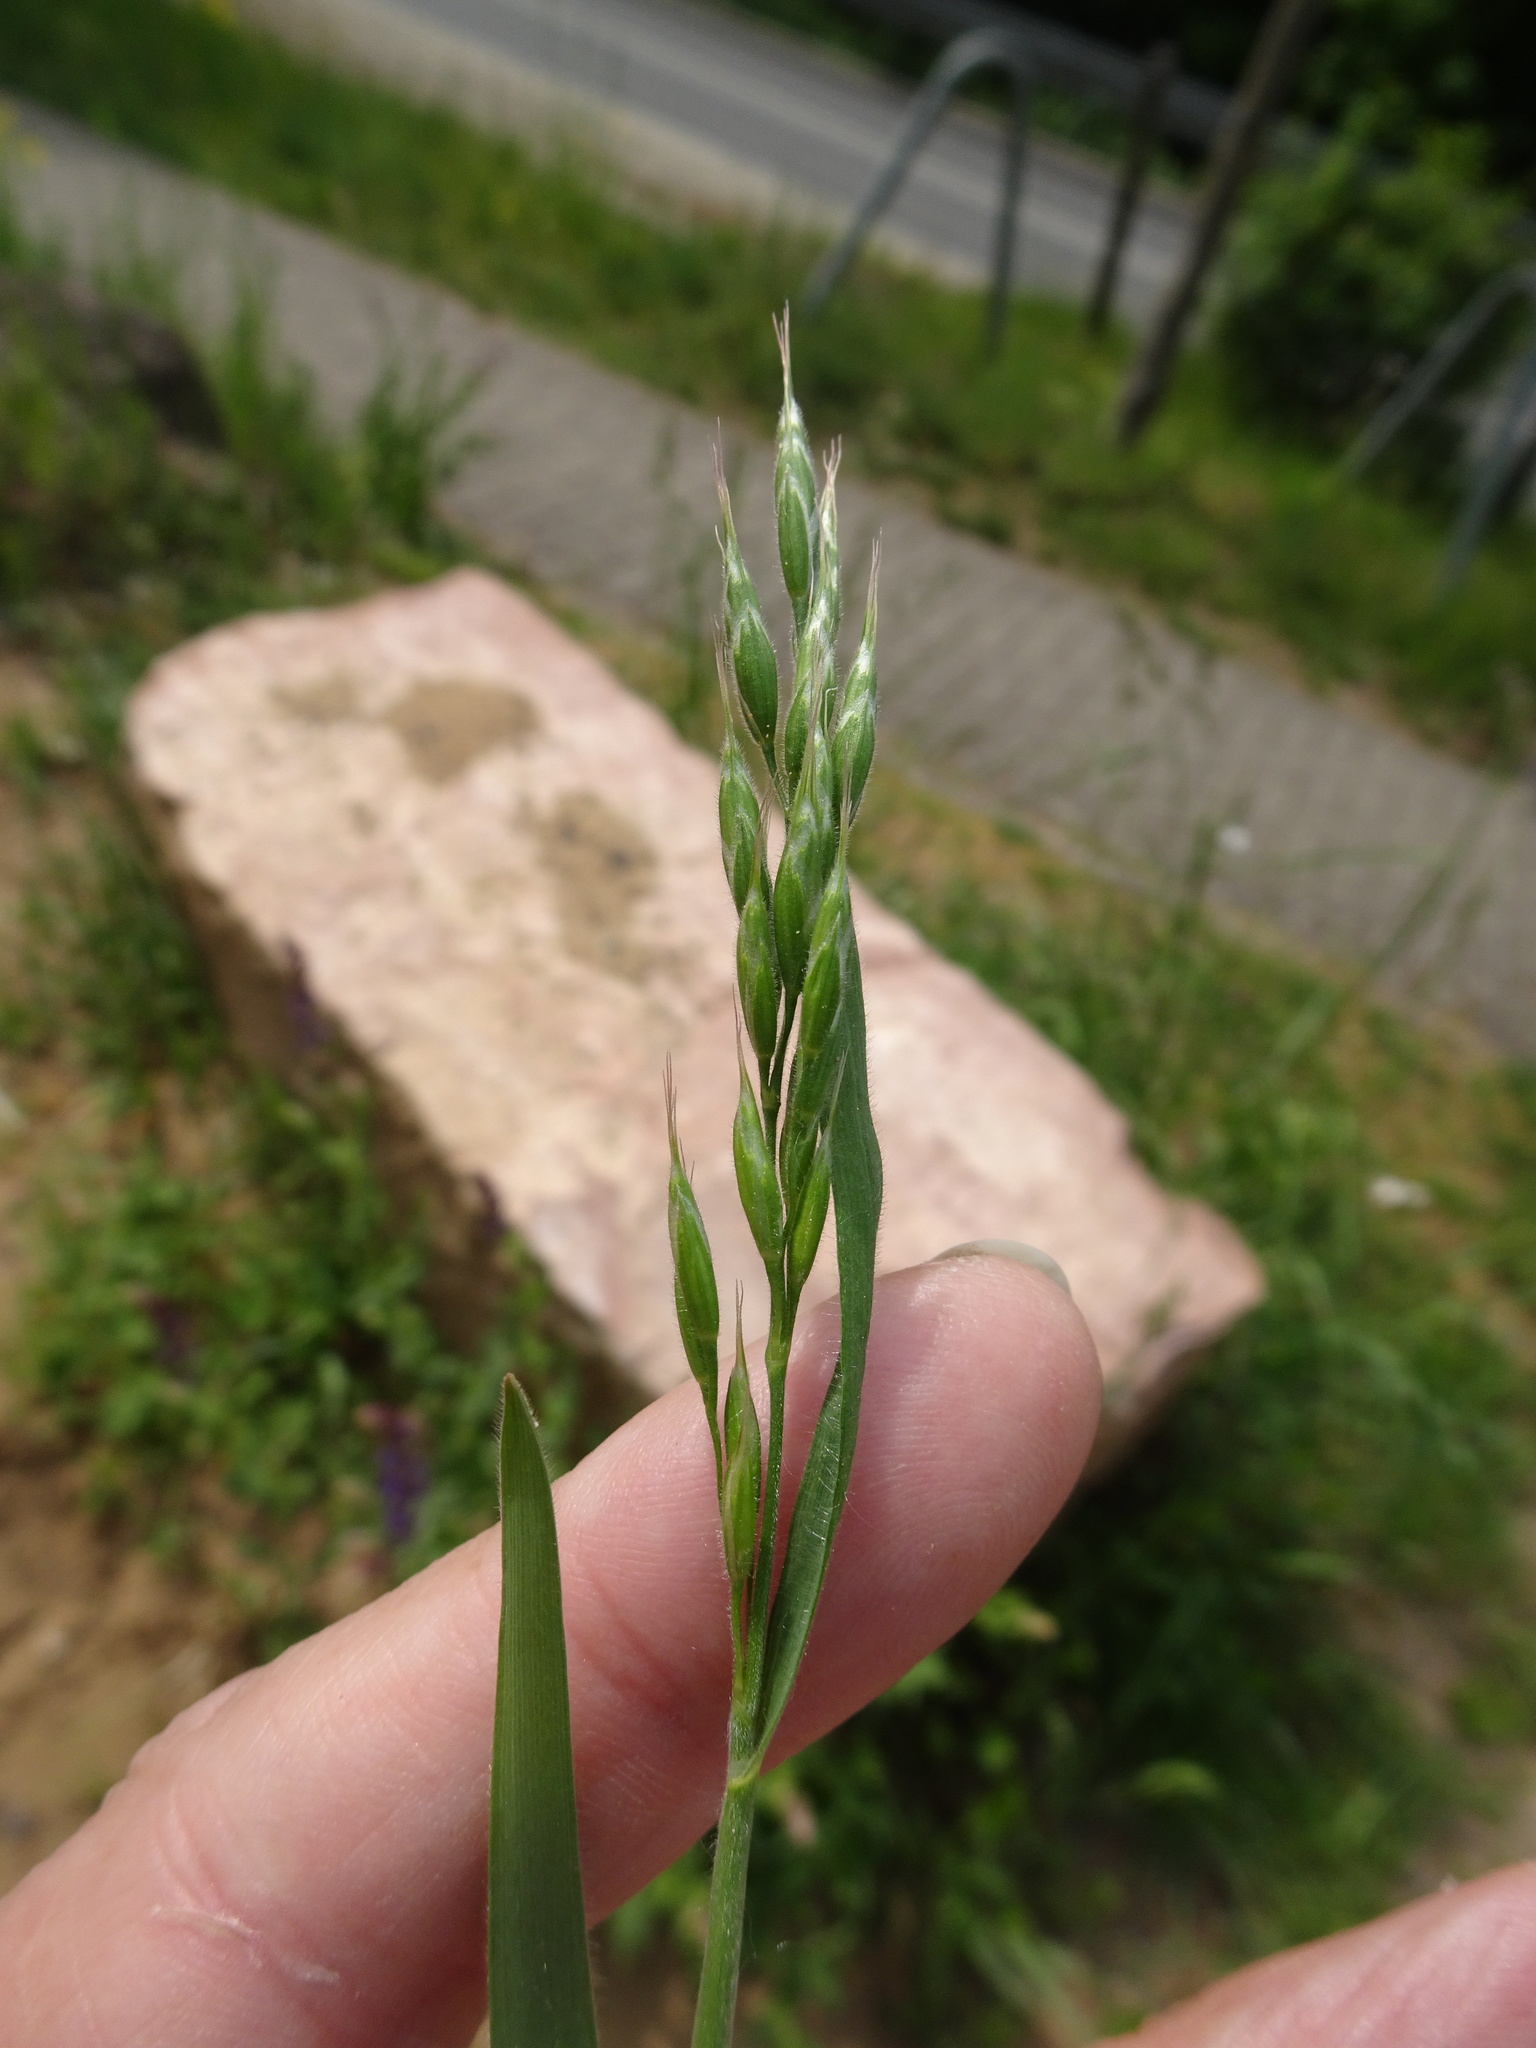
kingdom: Plantae
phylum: Tracheophyta
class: Liliopsida
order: Poales
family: Poaceae
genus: Bromus
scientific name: Bromus hordeaceus
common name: Soft brome
